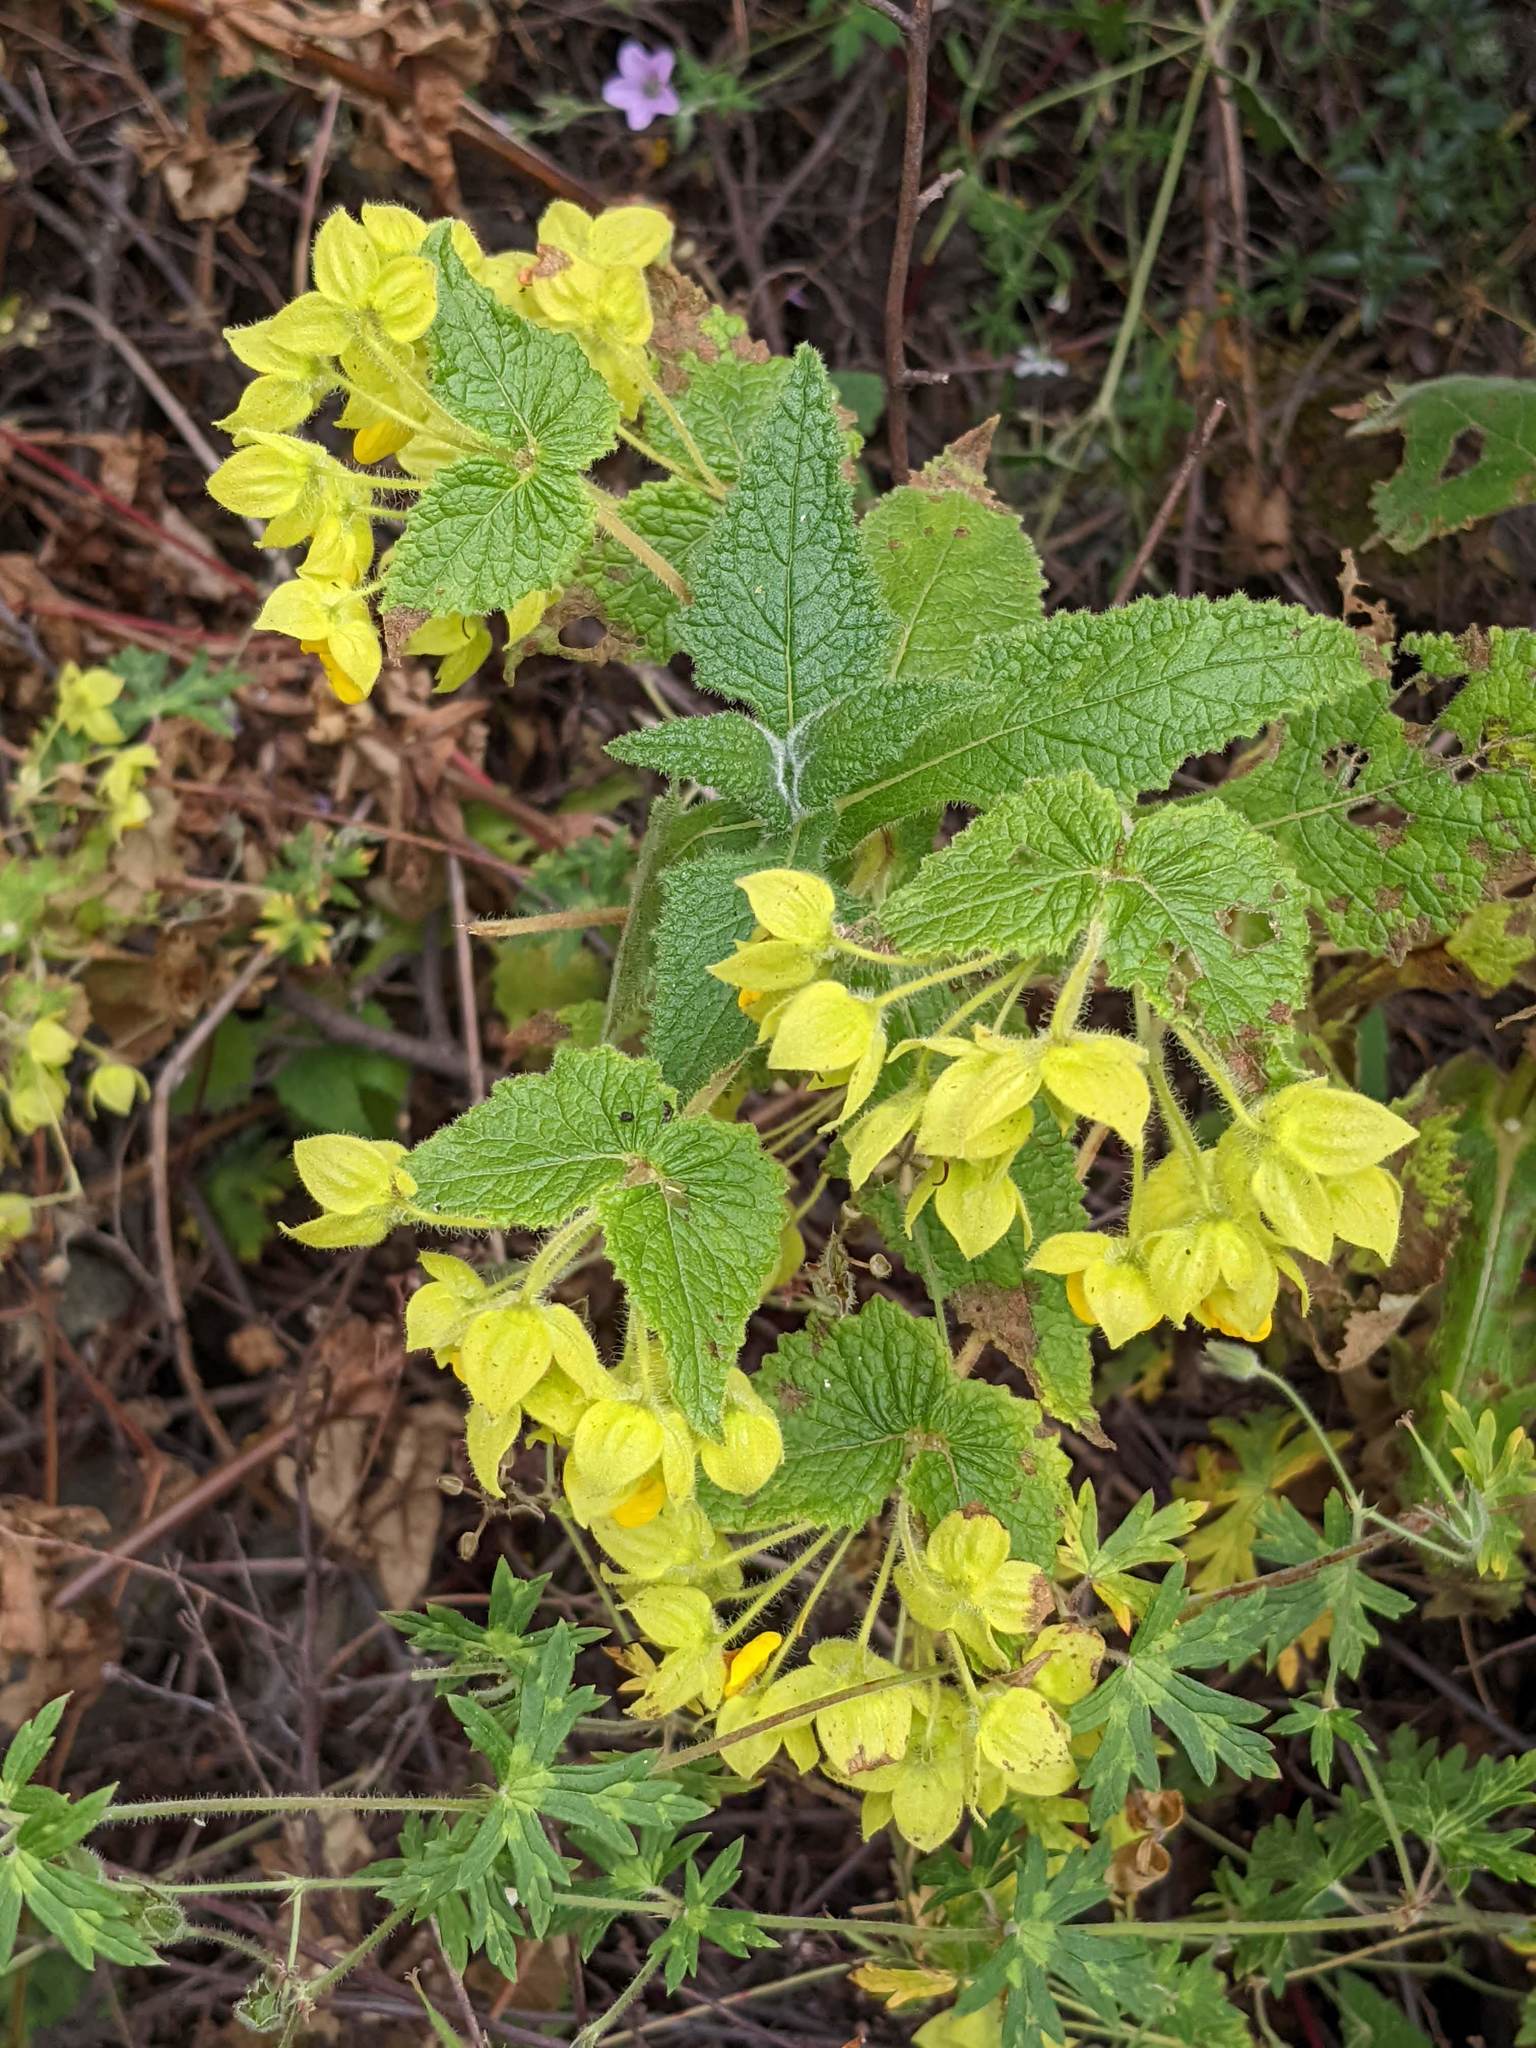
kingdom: Plantae
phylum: Tracheophyta
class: Magnoliopsida
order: Lamiales
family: Calceolariaceae
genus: Calceolaria
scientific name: Calceolaria perfoliata
